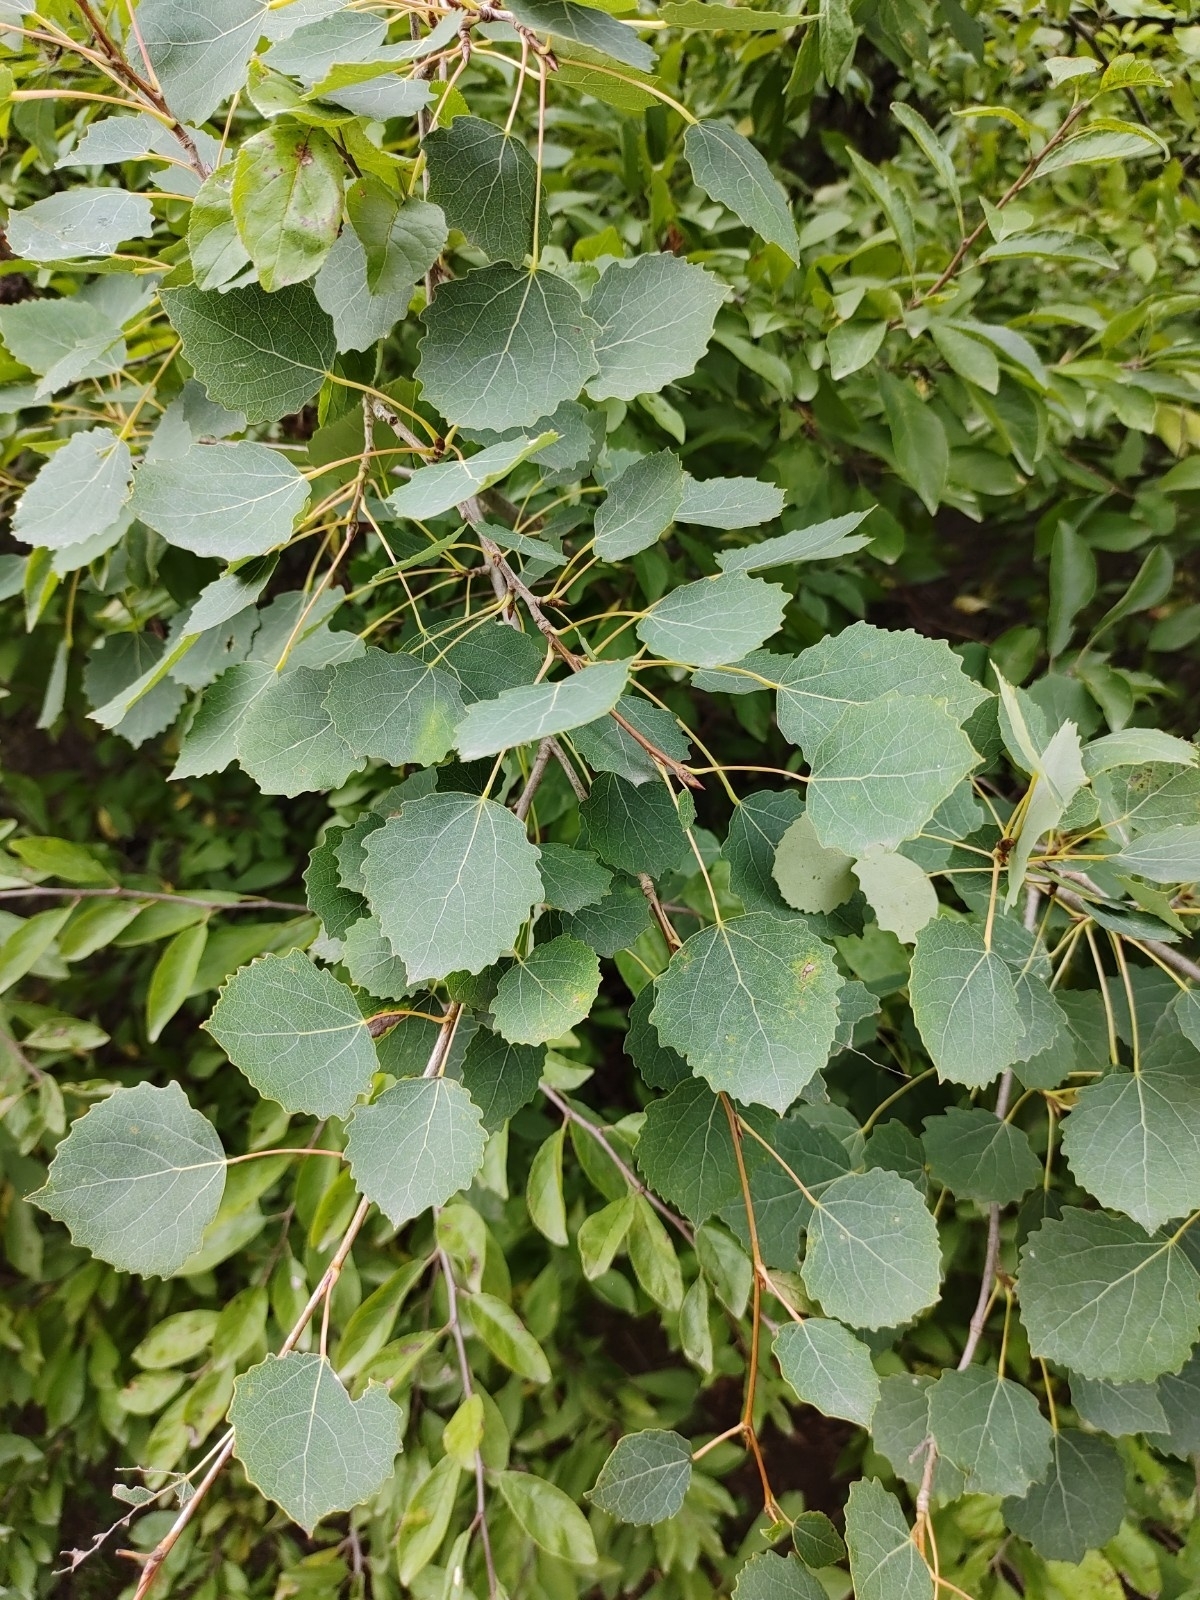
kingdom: Plantae
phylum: Tracheophyta
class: Magnoliopsida
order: Malpighiales
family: Salicaceae
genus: Populus
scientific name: Populus tremula
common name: European aspen
